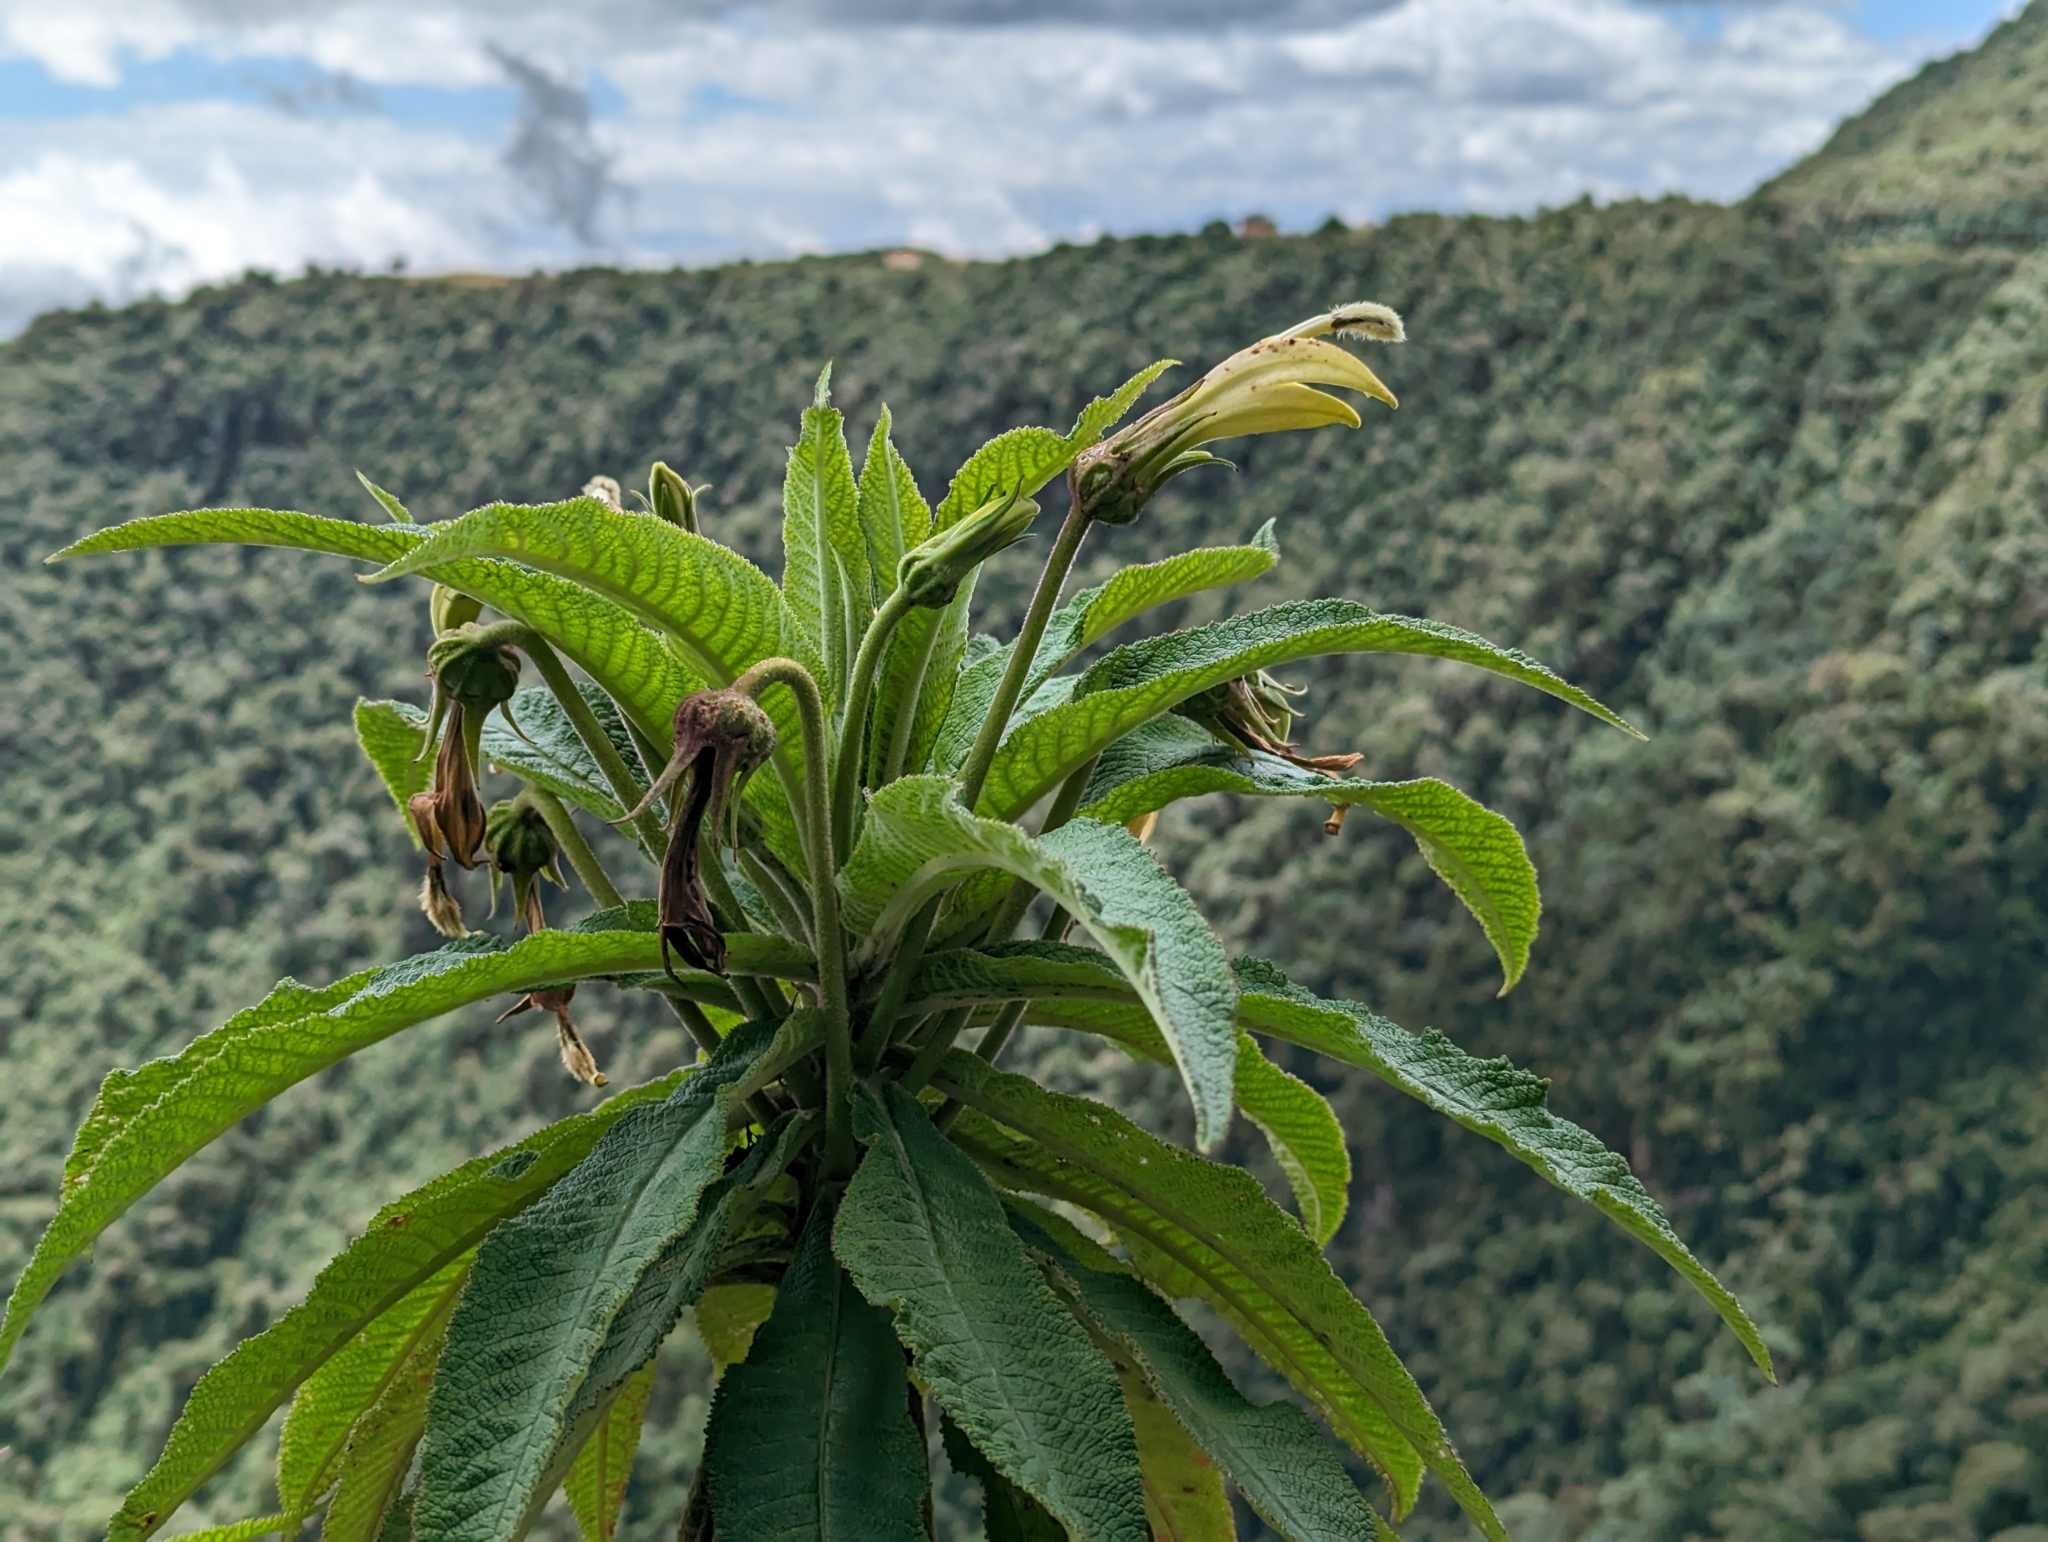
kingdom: Plantae
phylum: Tracheophyta
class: Magnoliopsida
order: Asterales
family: Campanulaceae
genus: Siphocampylus
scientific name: Siphocampylus giganteus
